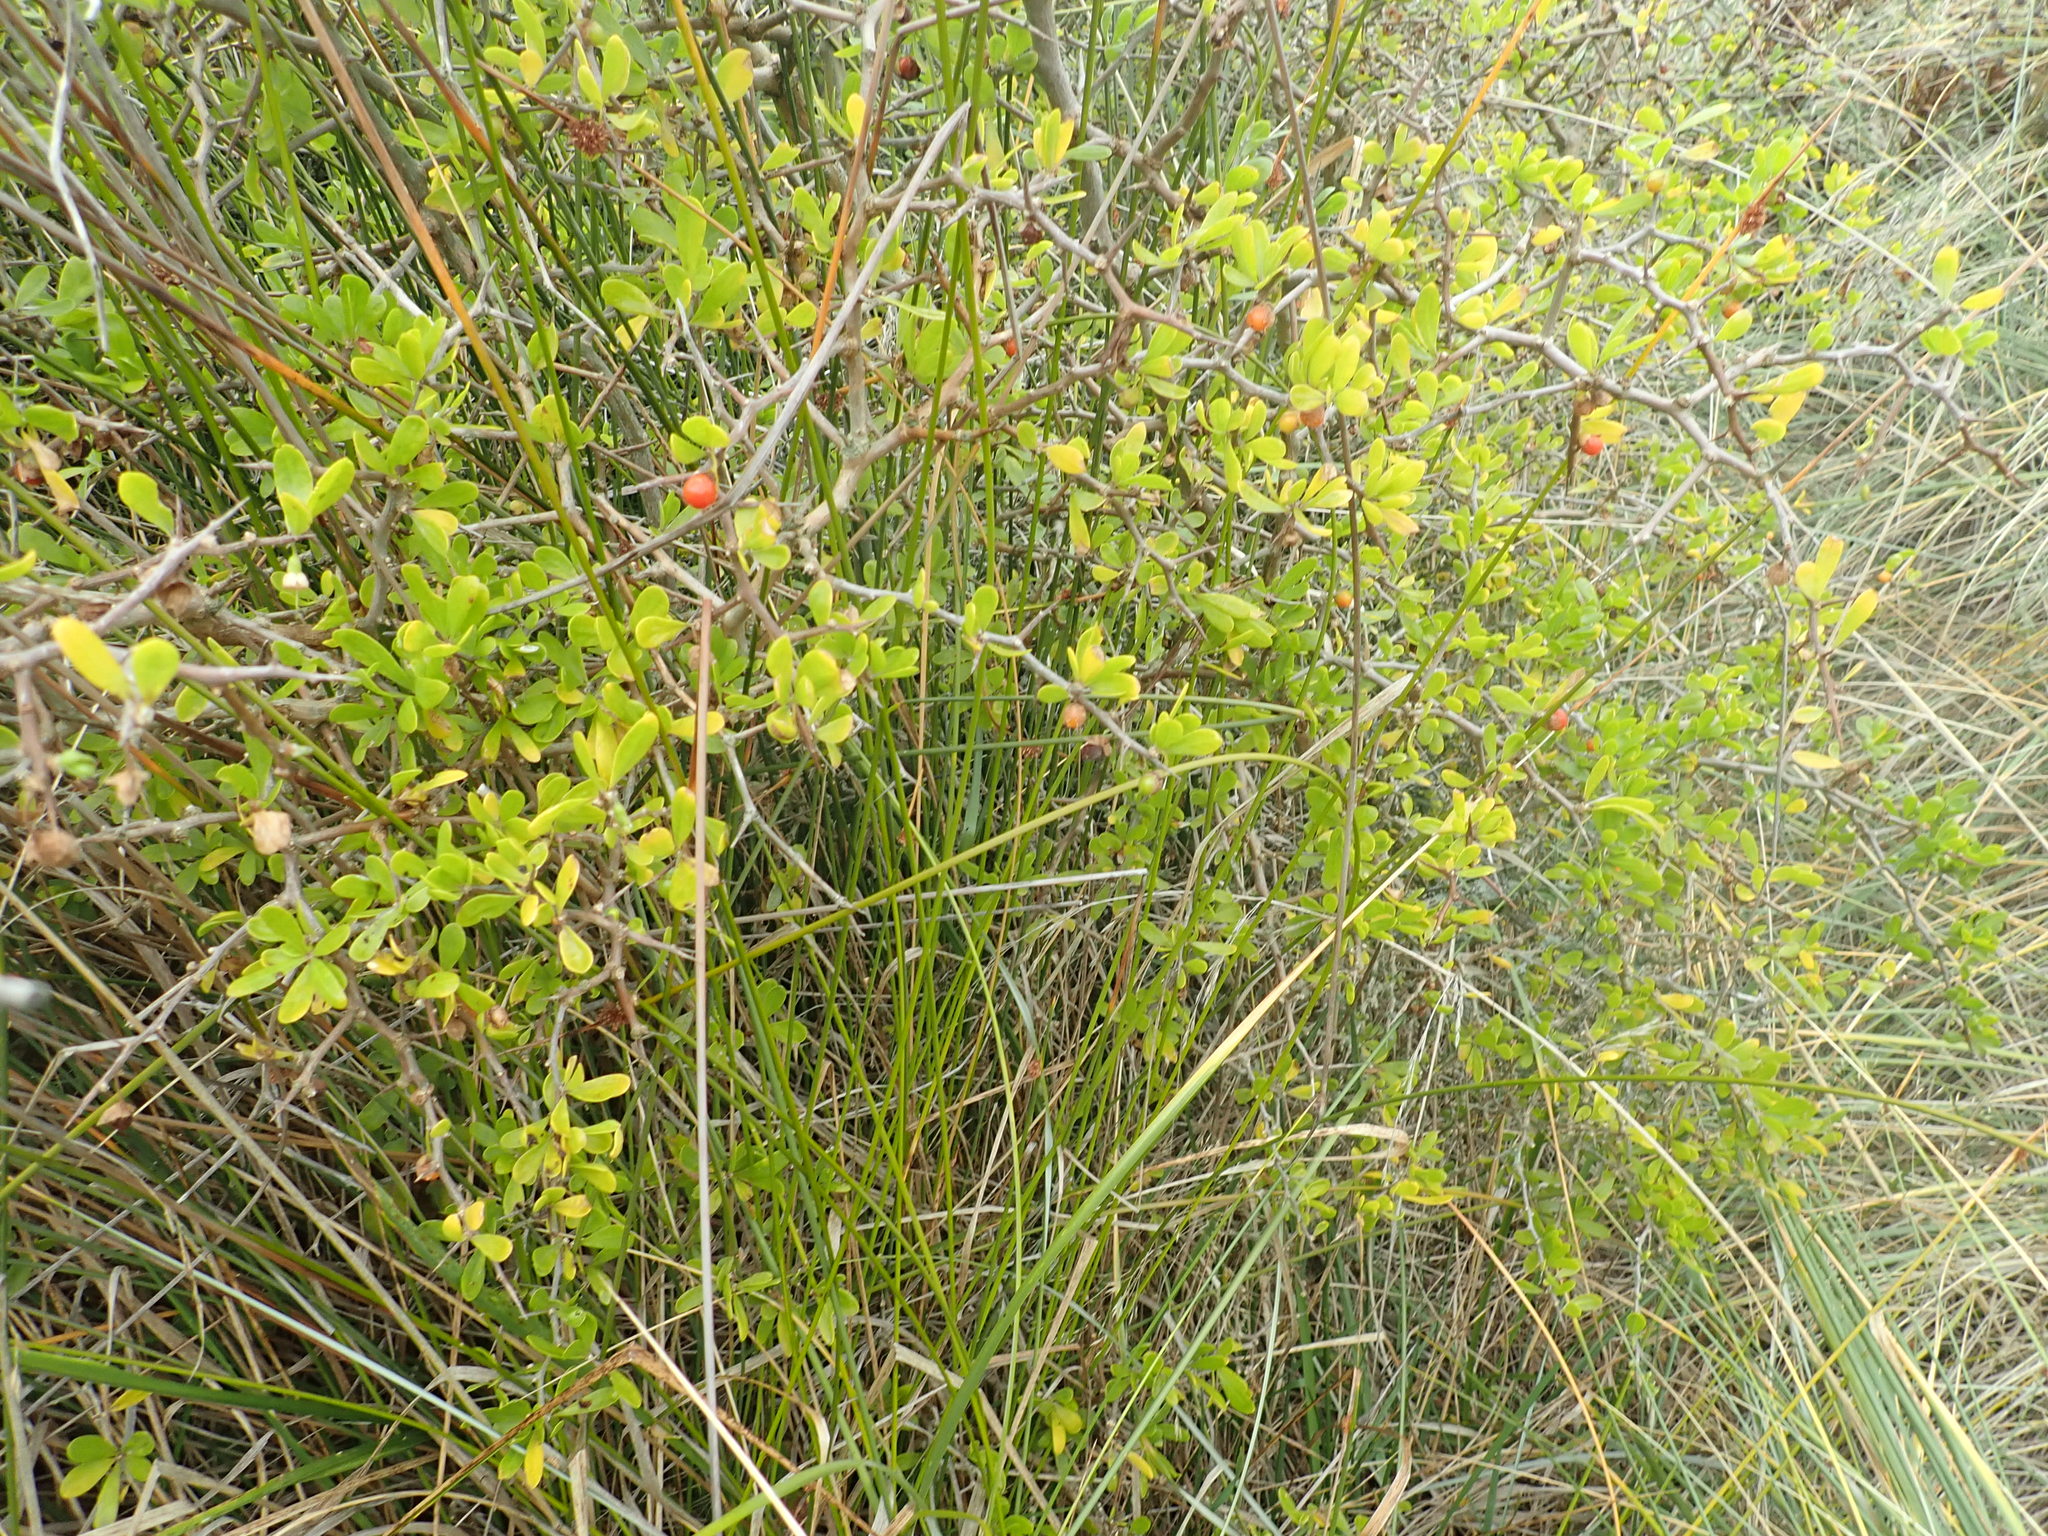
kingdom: Plantae
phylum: Tracheophyta
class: Magnoliopsida
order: Solanales
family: Solanaceae
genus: Lycium
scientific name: Lycium ferocissimum
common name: African boxthorn
